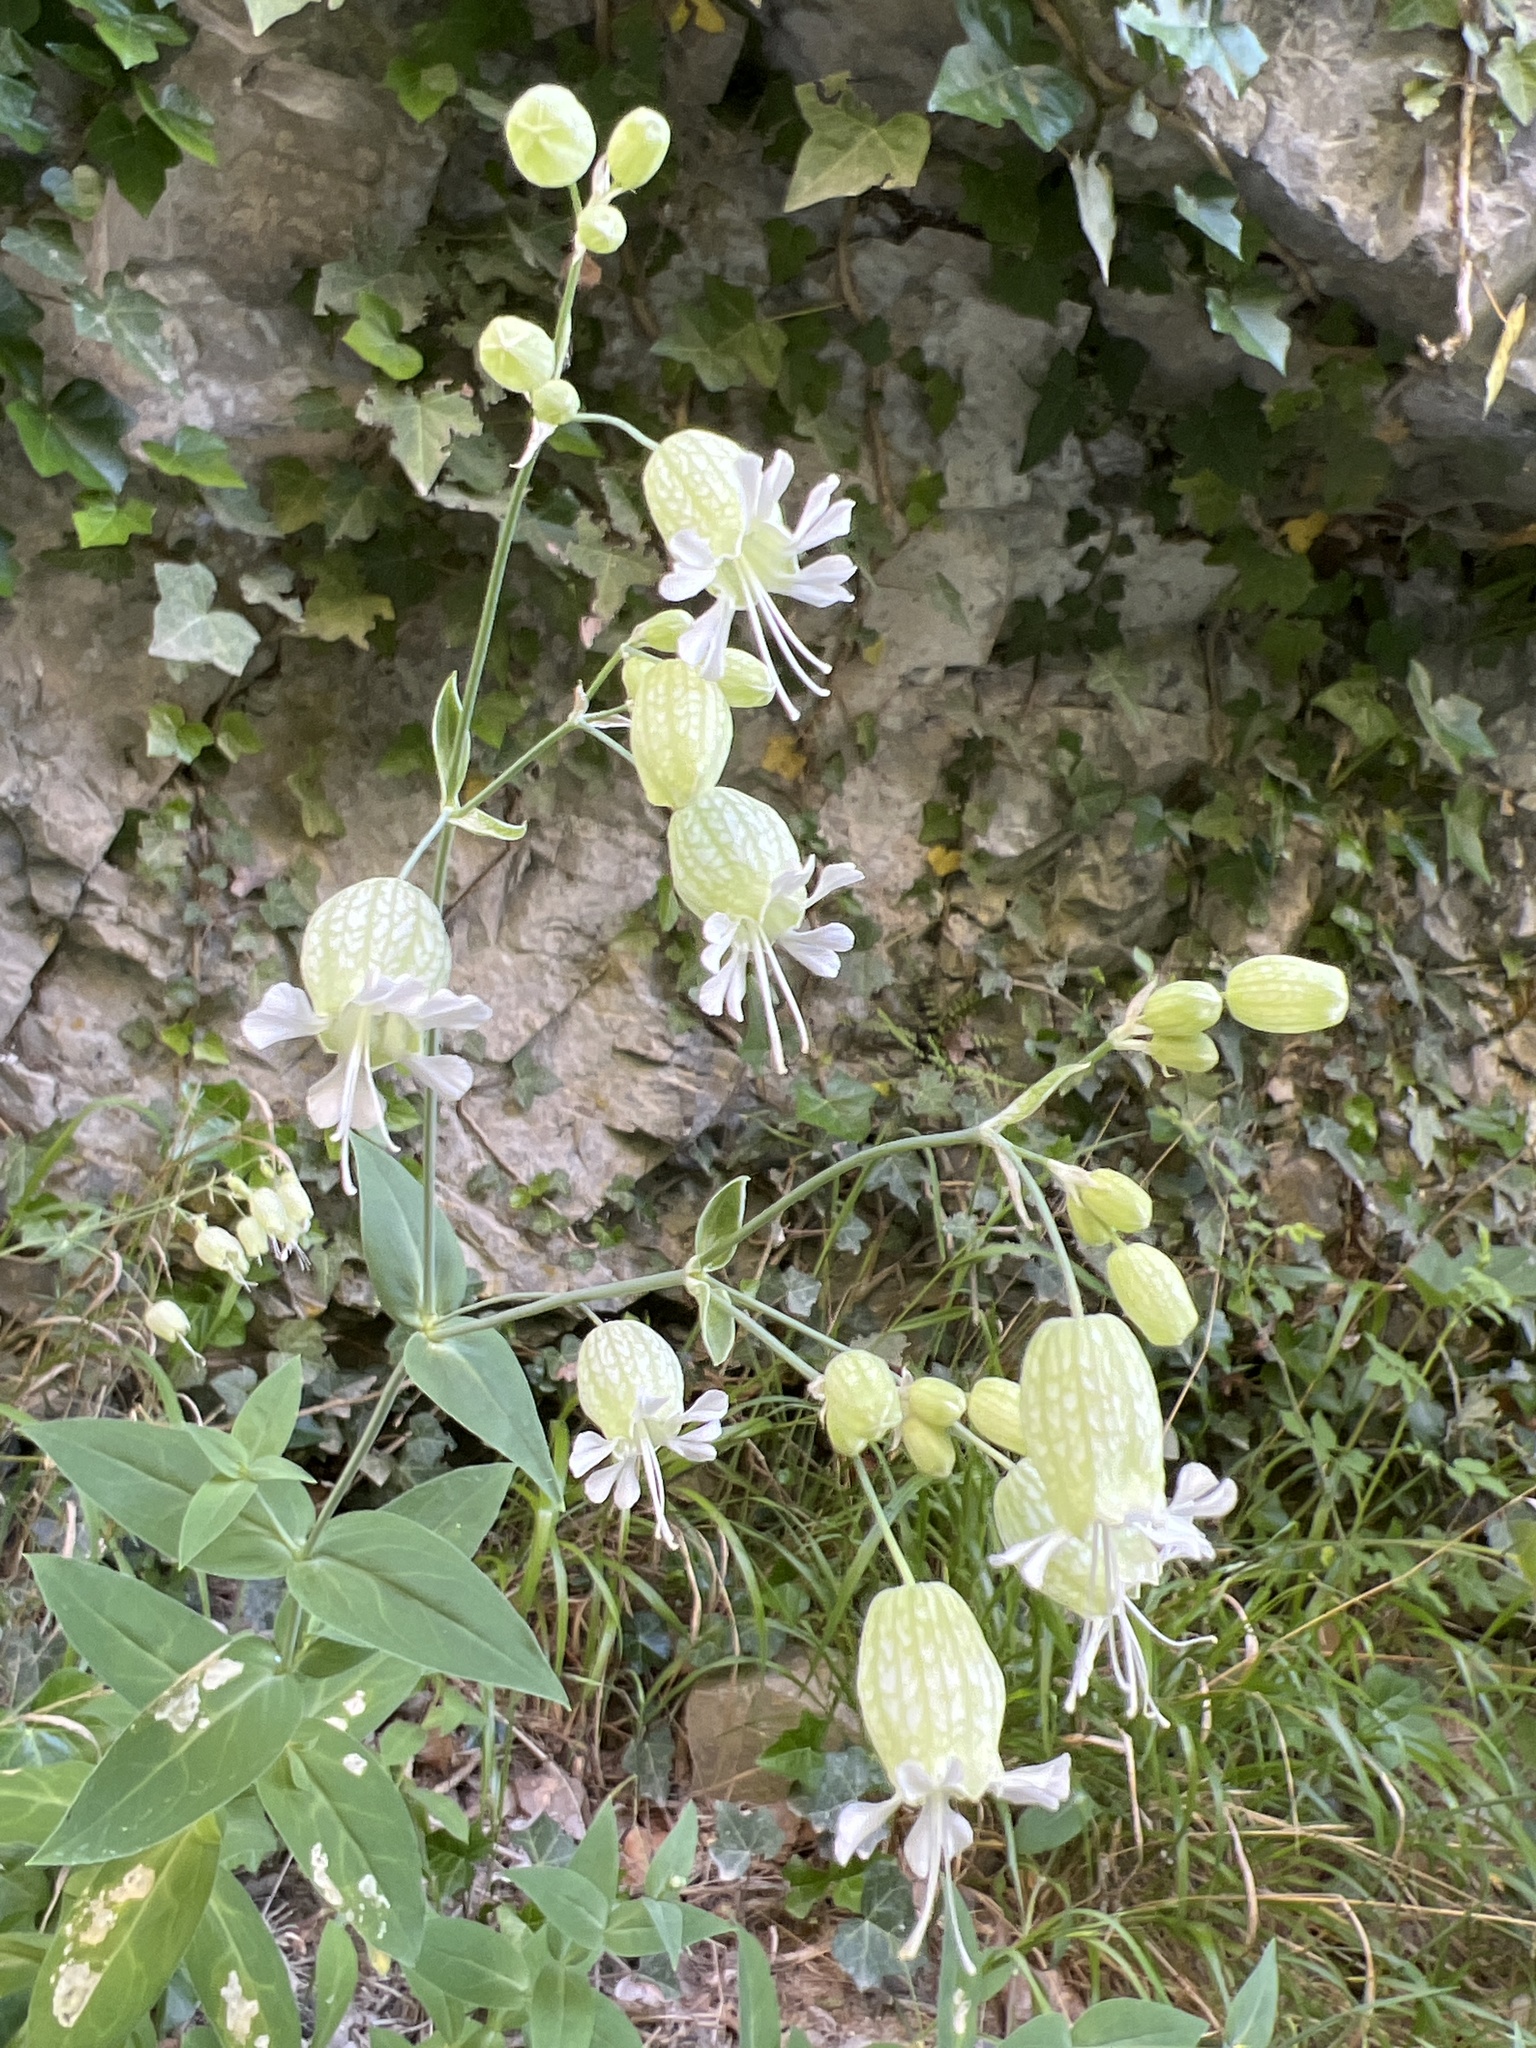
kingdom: Plantae
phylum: Tracheophyta
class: Magnoliopsida
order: Caryophyllales
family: Caryophyllaceae
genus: Silene
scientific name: Silene vulgaris
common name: Bladder campion
